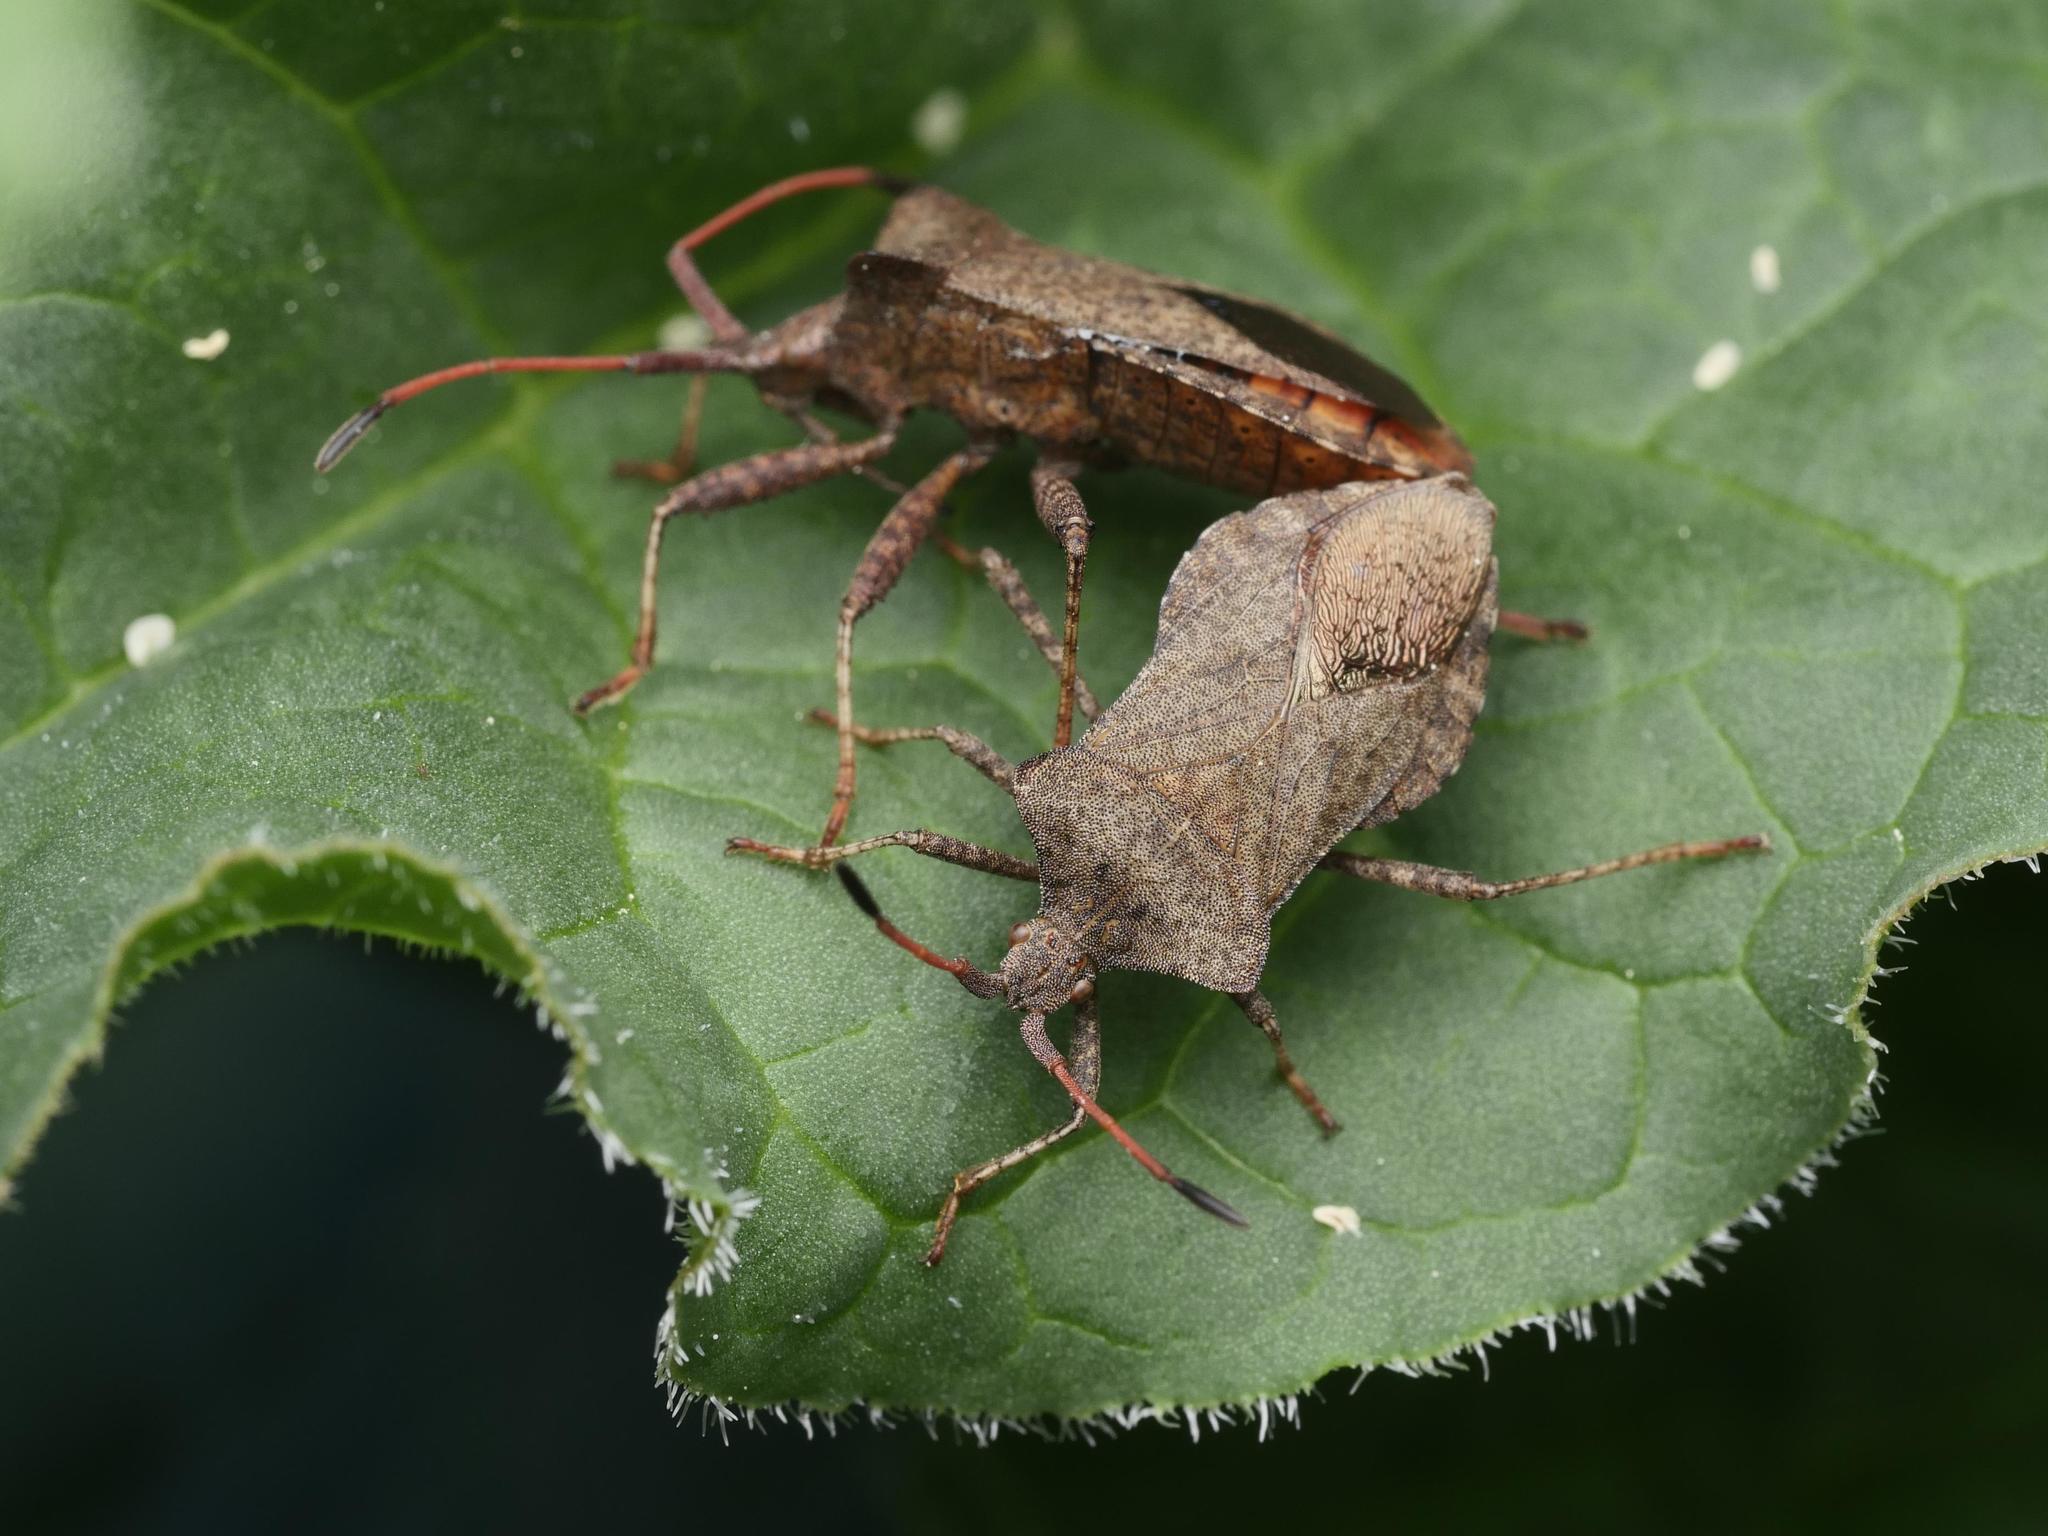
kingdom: Animalia
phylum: Arthropoda
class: Insecta
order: Hemiptera
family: Coreidae
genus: Coreus
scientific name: Coreus marginatus
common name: Dock bug
